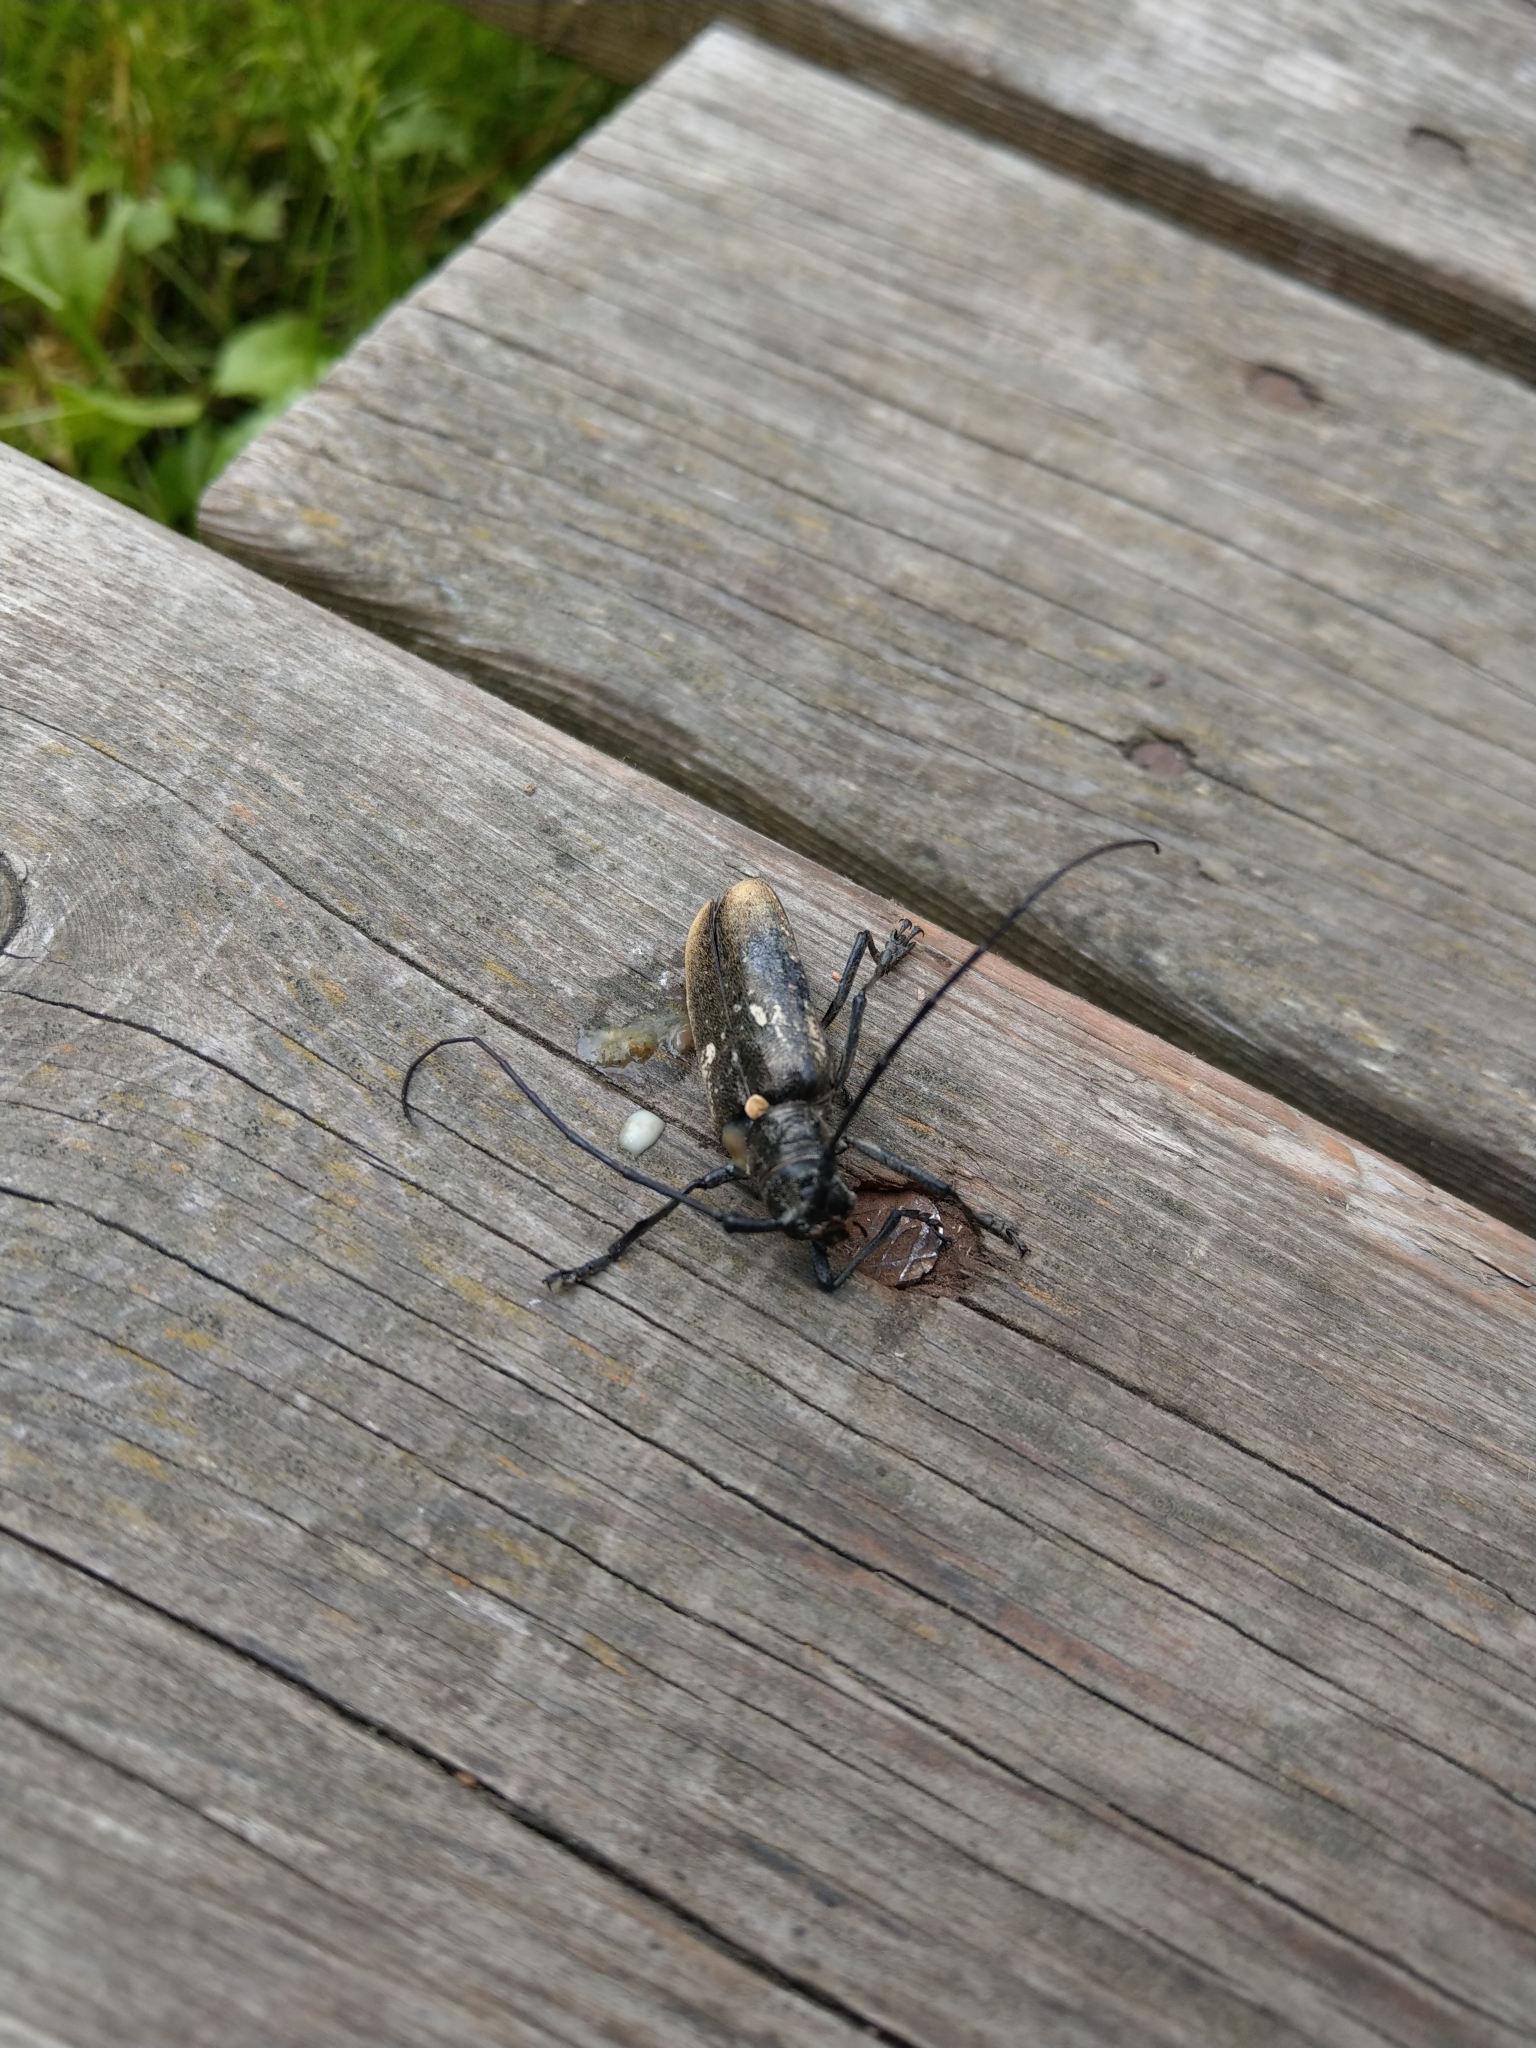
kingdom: Animalia
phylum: Arthropoda
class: Insecta
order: Coleoptera
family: Cerambycidae
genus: Monochamus
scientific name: Monochamus sartor
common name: Pine sawyer
